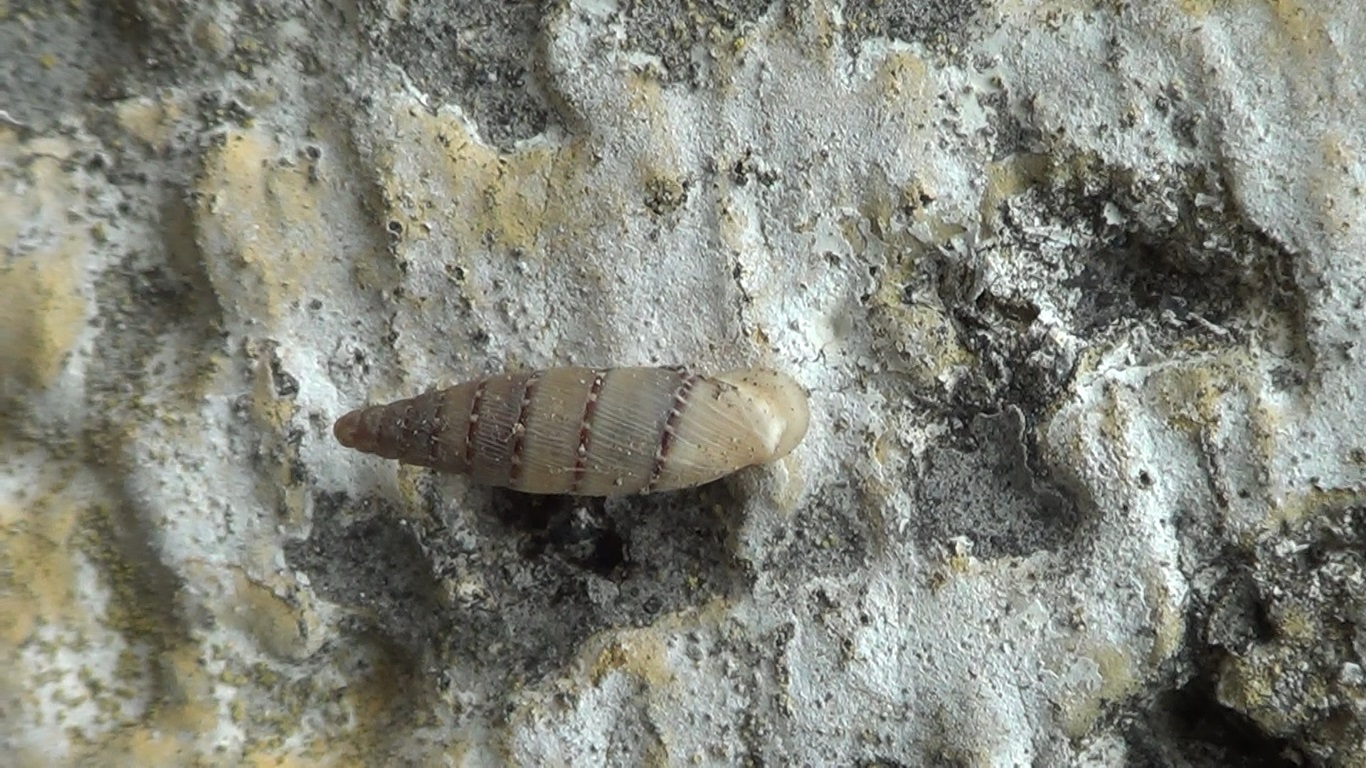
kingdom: Animalia
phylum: Mollusca
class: Gastropoda
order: Stylommatophora
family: Clausiliidae
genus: Papillifera
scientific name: Papillifera papillaris
